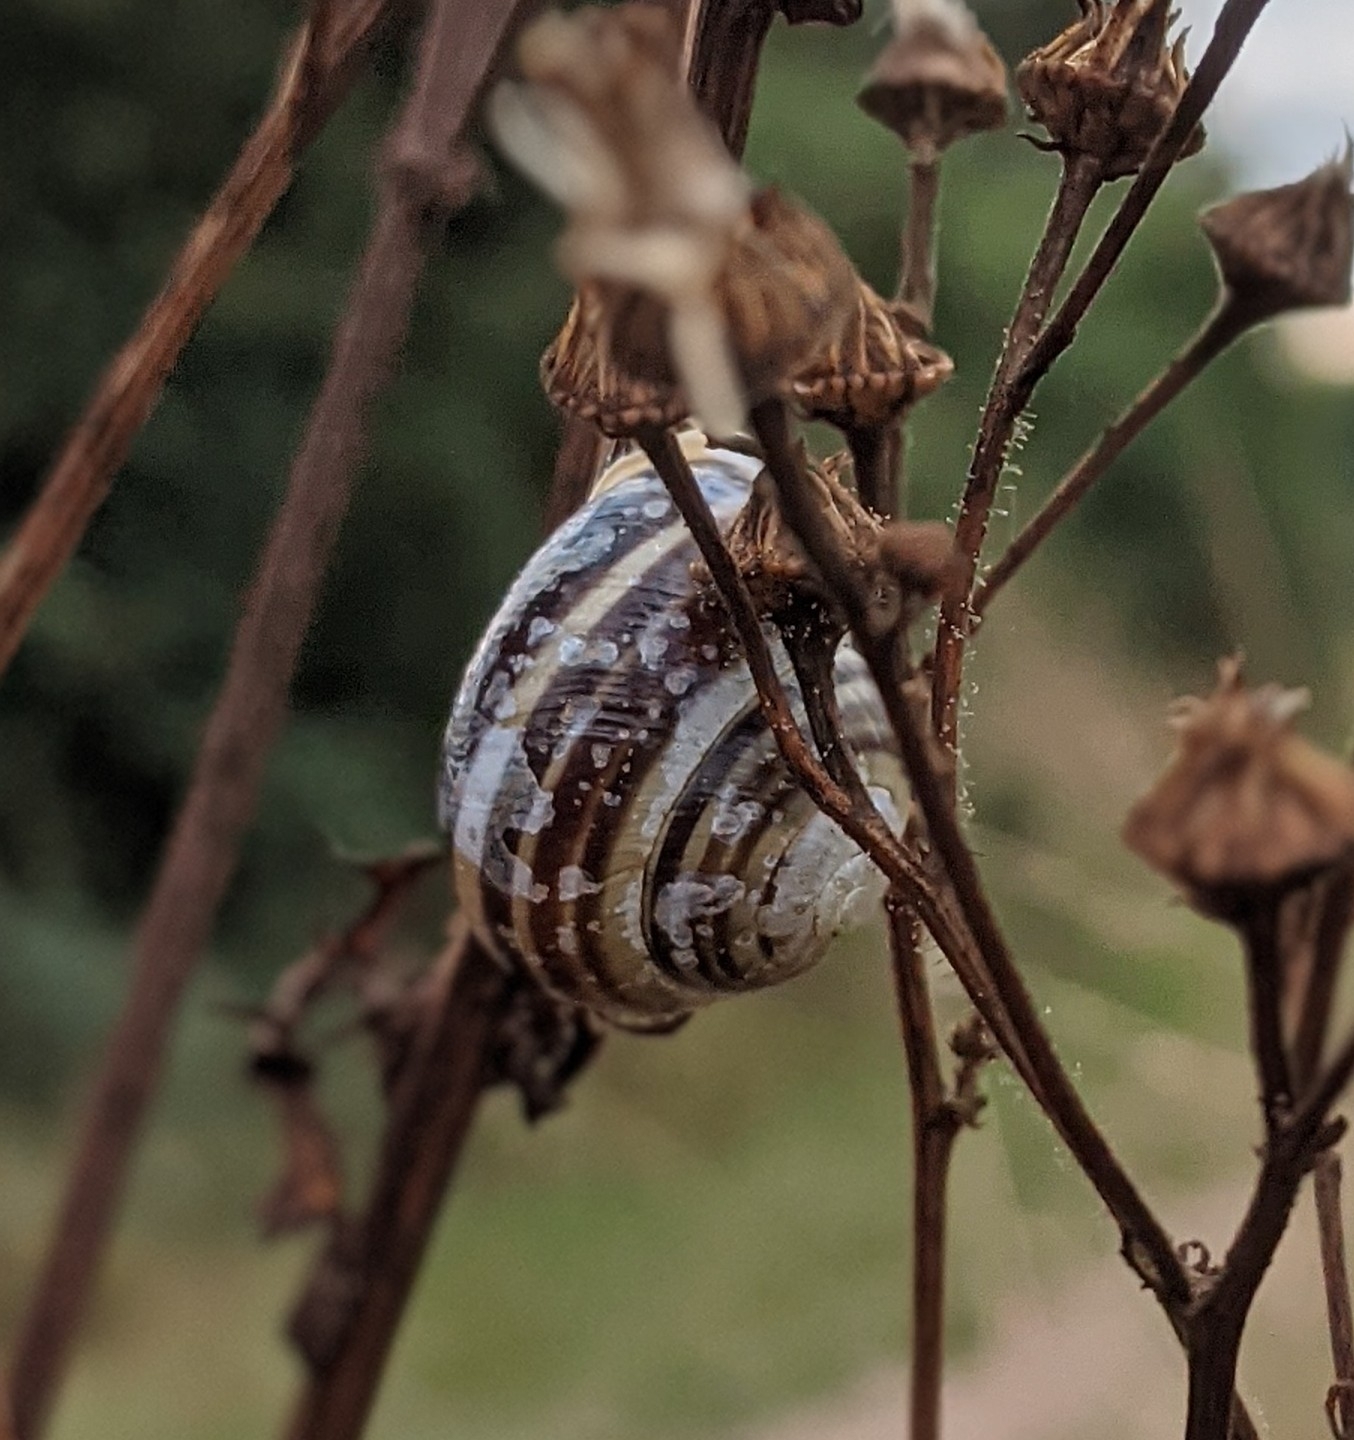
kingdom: Animalia
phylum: Mollusca
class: Gastropoda
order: Stylommatophora
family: Helicidae
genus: Cepaea
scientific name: Cepaea hortensis
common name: White-lip gardensnail
